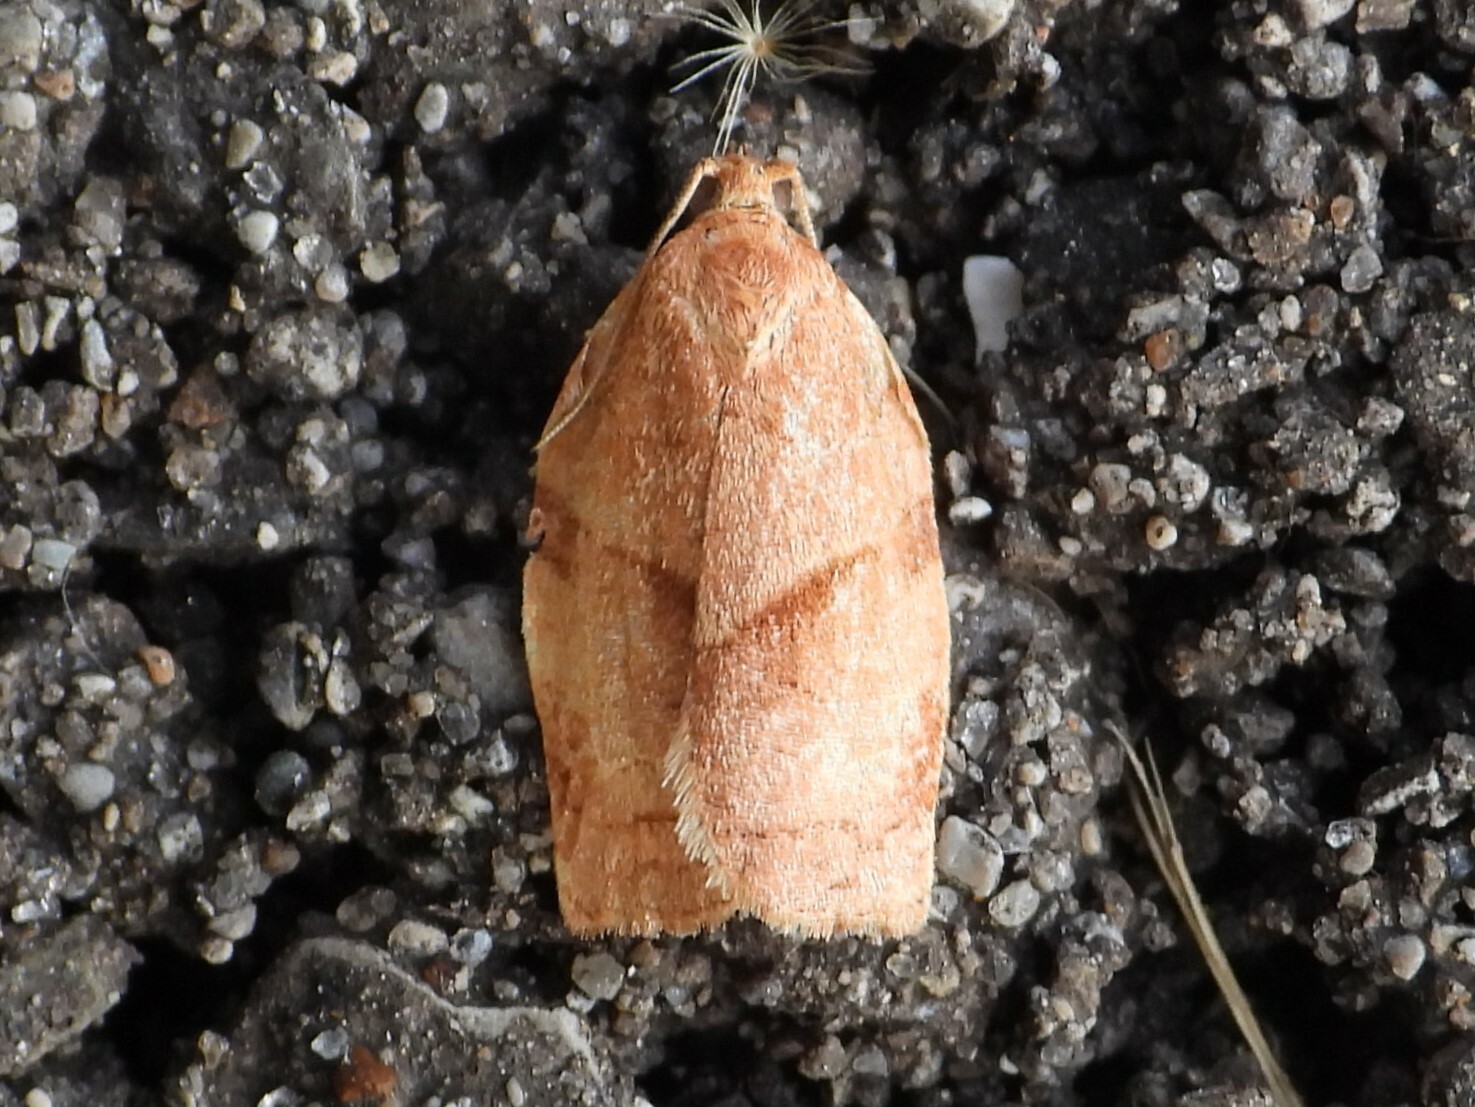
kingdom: Animalia
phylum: Arthropoda
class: Insecta
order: Lepidoptera
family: Tortricidae
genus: Choristoneura
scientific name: Choristoneura rosaceana
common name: Oblique-banded leafroller moth
